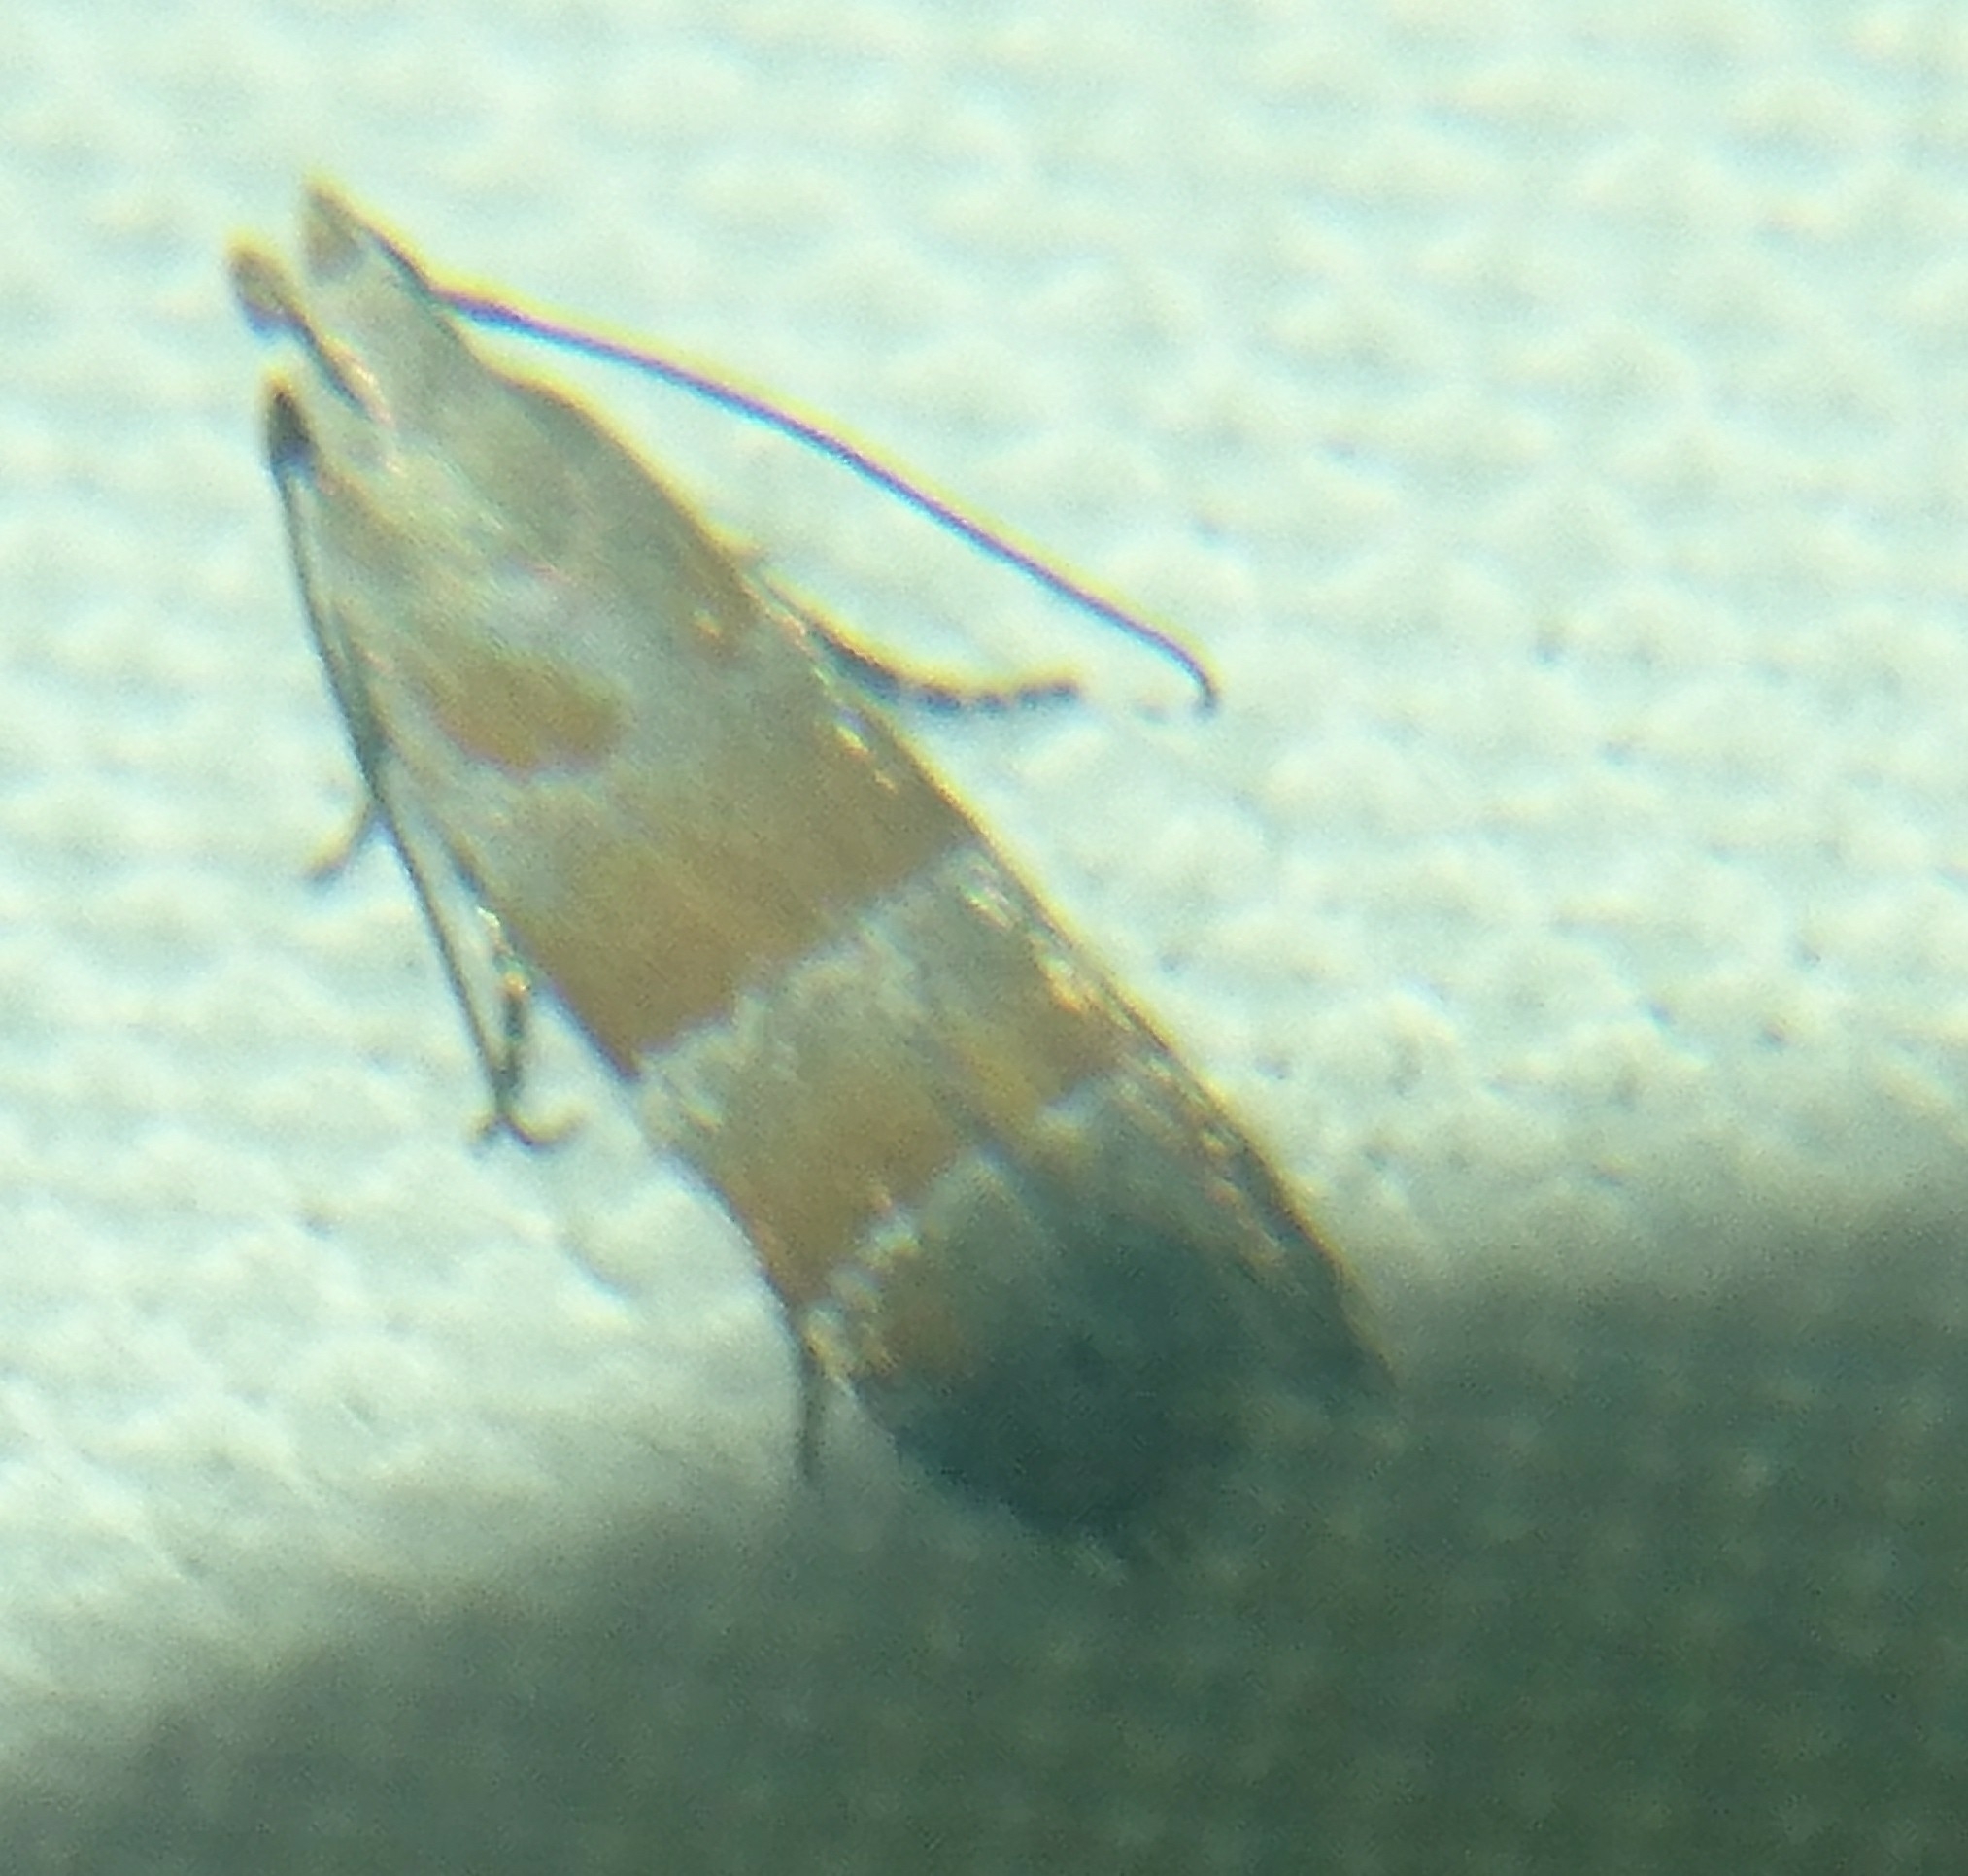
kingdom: Animalia
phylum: Arthropoda
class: Insecta
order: Lepidoptera
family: Gelechiidae
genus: Battaristis
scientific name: Battaristis vittella
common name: Orange stripe-backed moth
